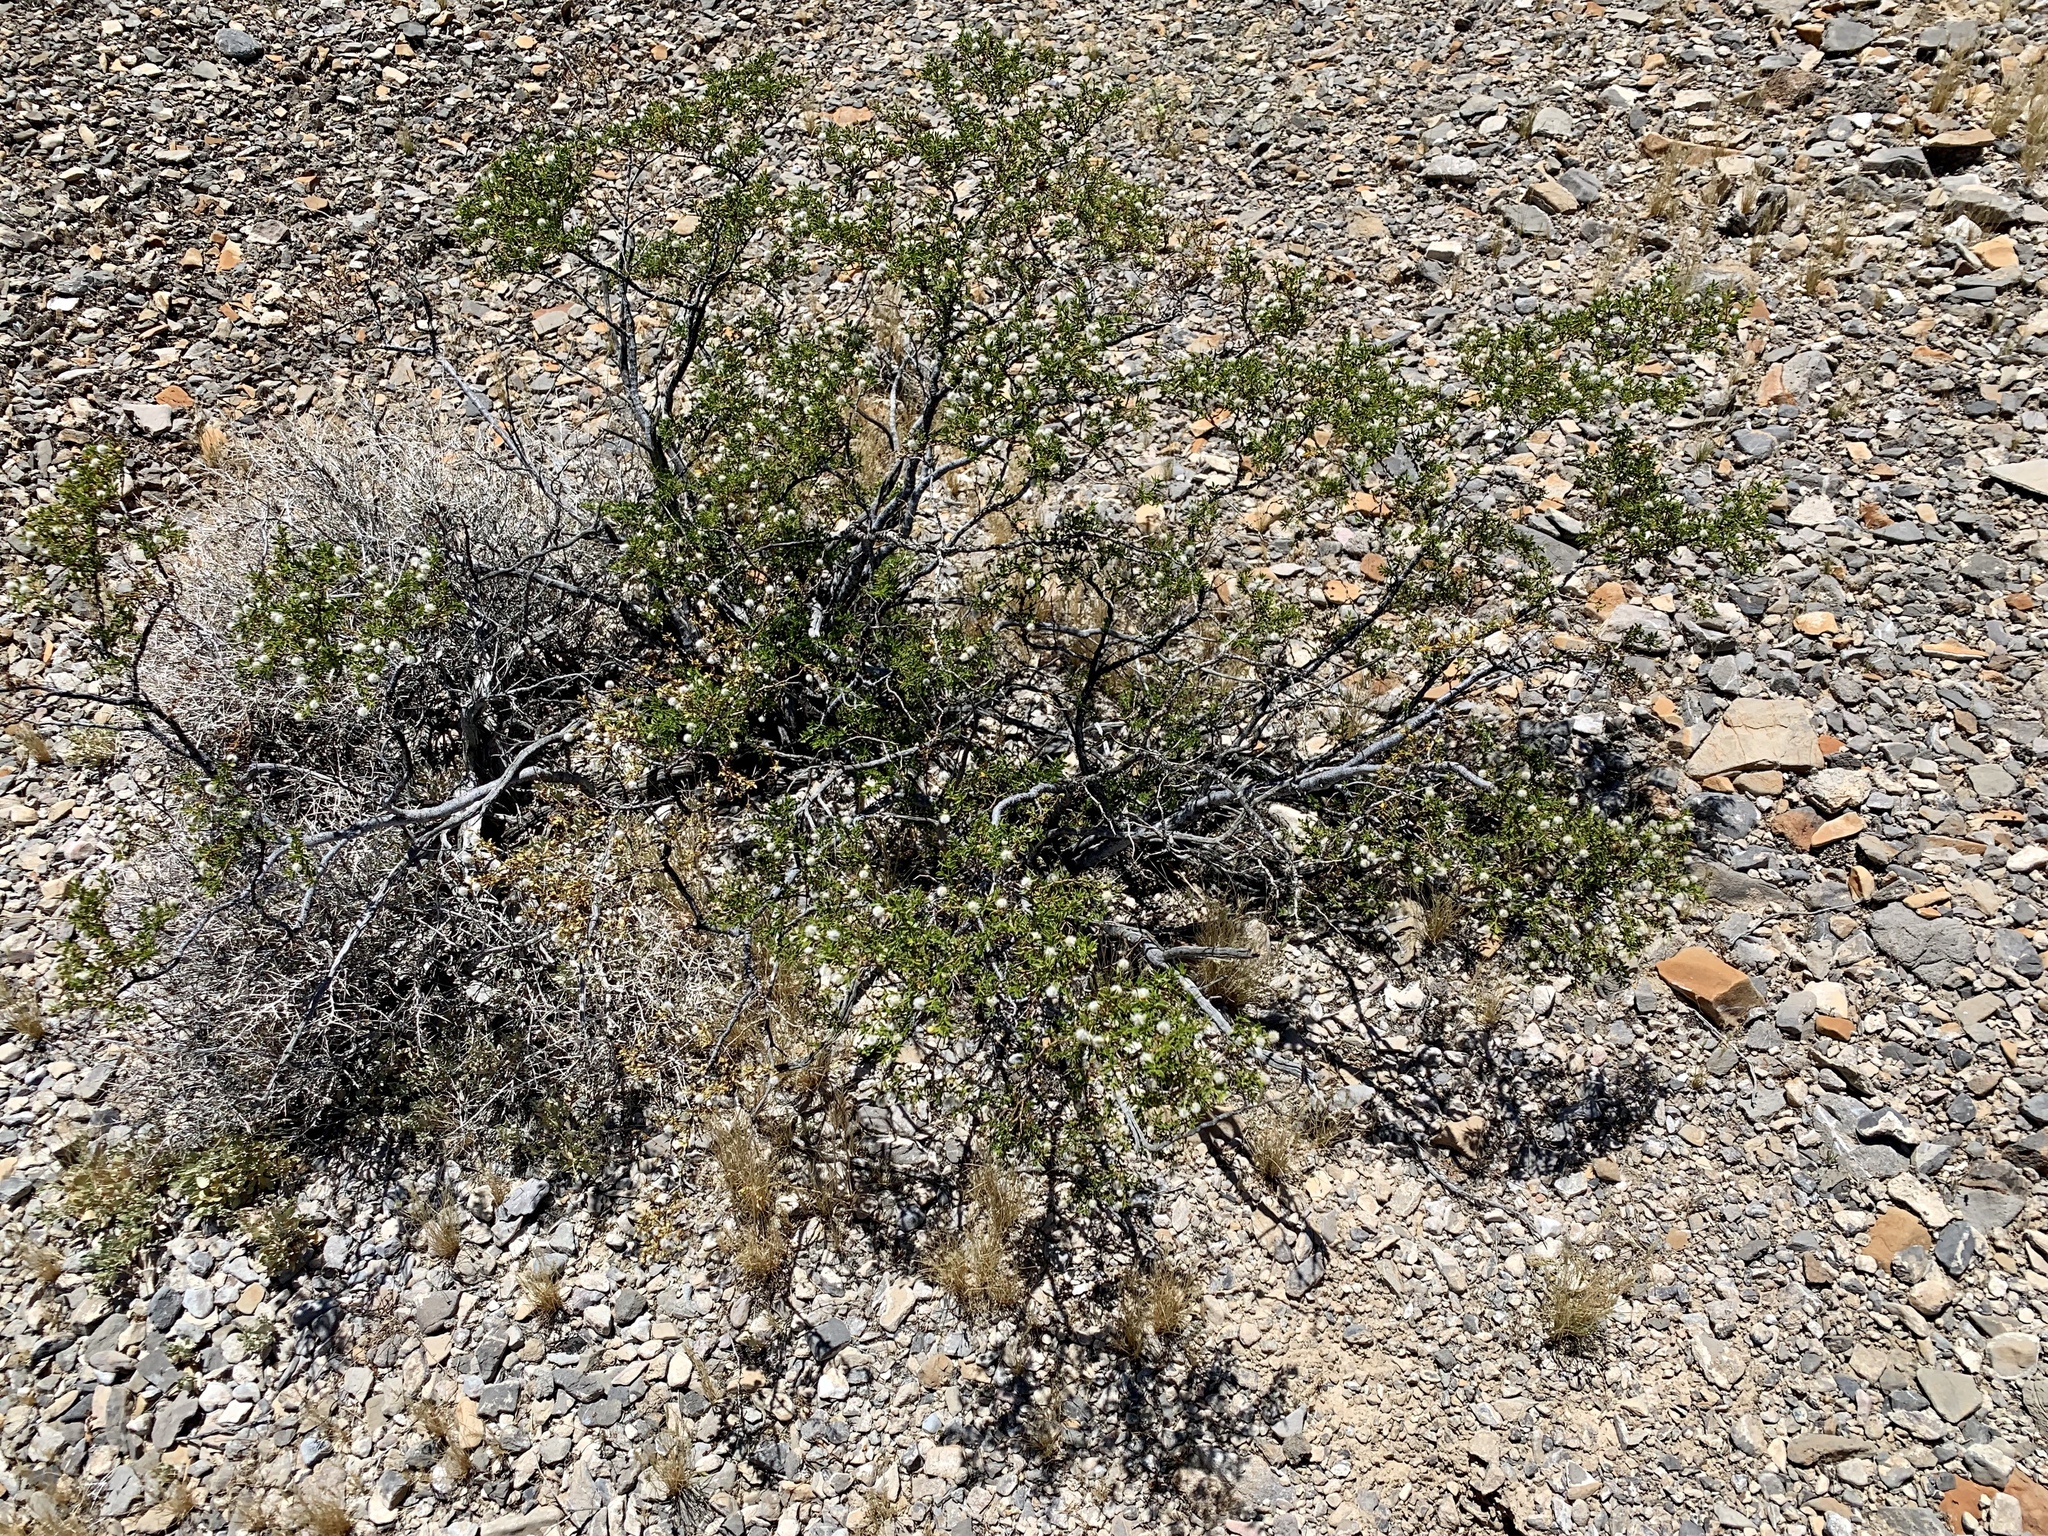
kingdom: Plantae
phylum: Tracheophyta
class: Magnoliopsida
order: Zygophyllales
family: Zygophyllaceae
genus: Larrea
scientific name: Larrea tridentata
